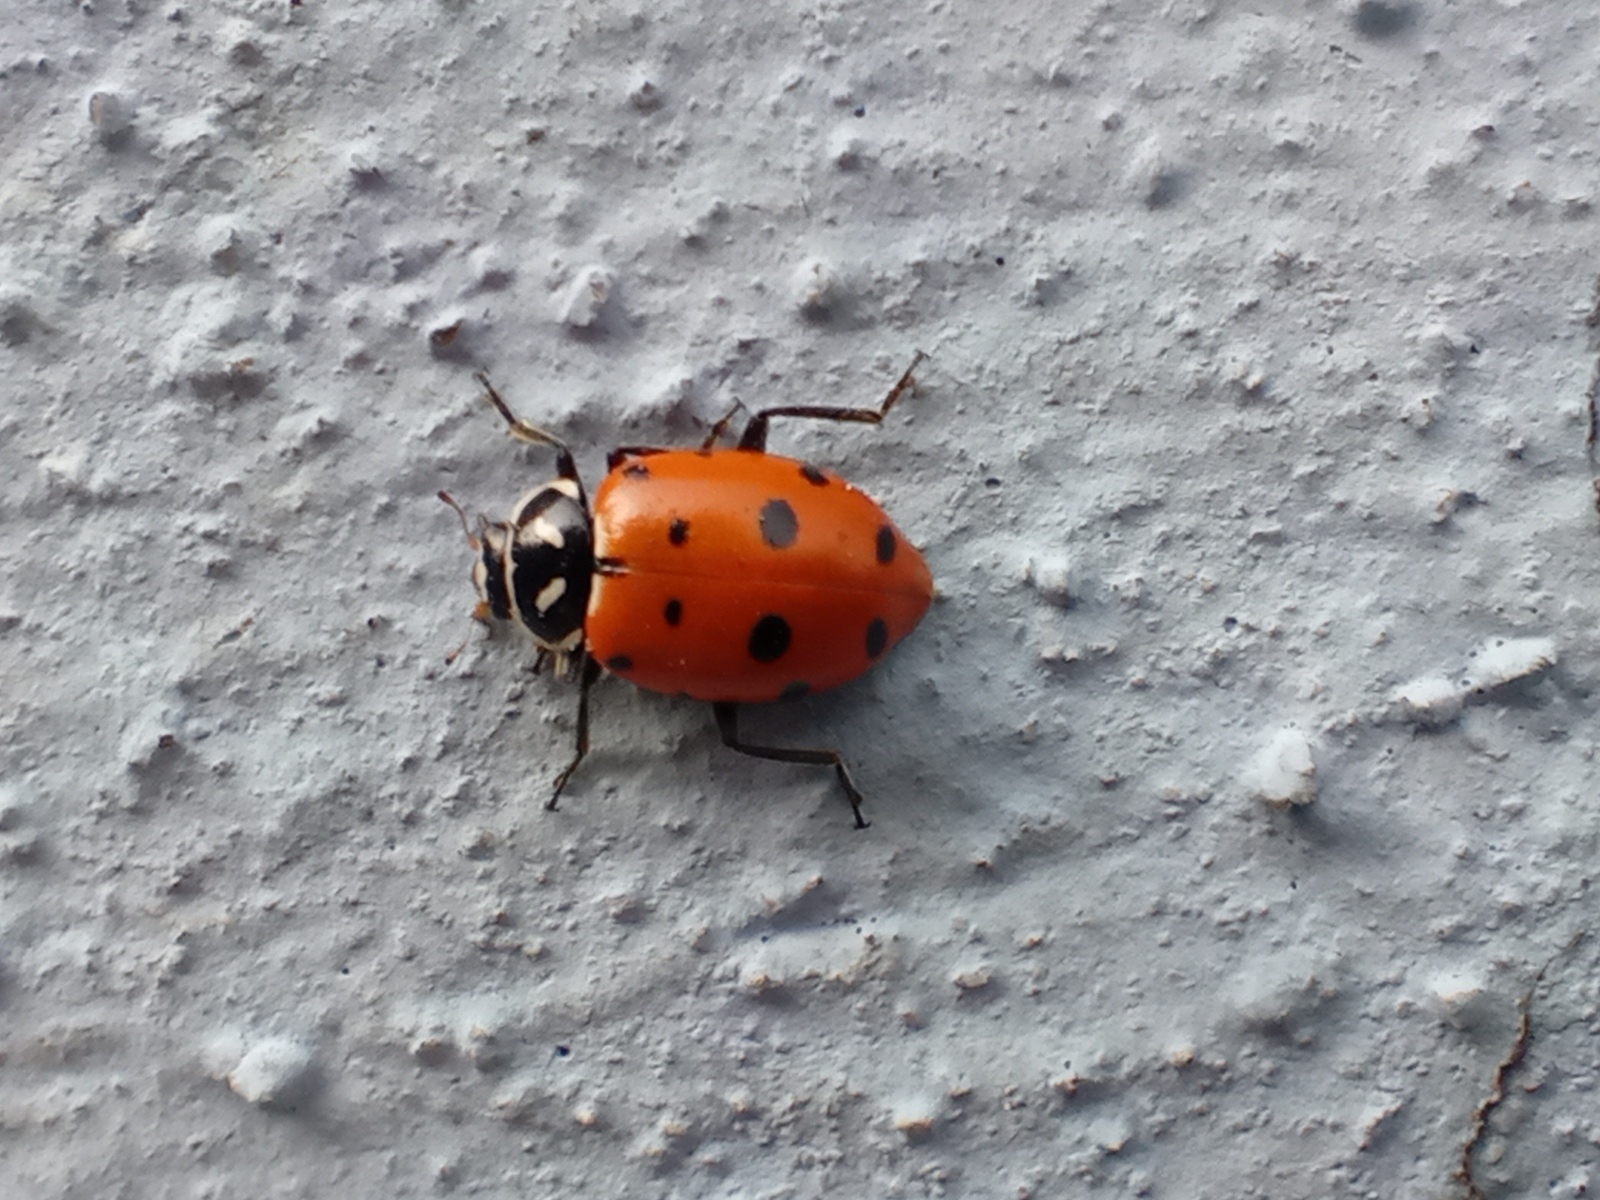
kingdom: Animalia
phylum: Arthropoda
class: Insecta
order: Coleoptera
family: Coccinellidae
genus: Hippodamia
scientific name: Hippodamia convergens
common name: Convergent lady beetle
